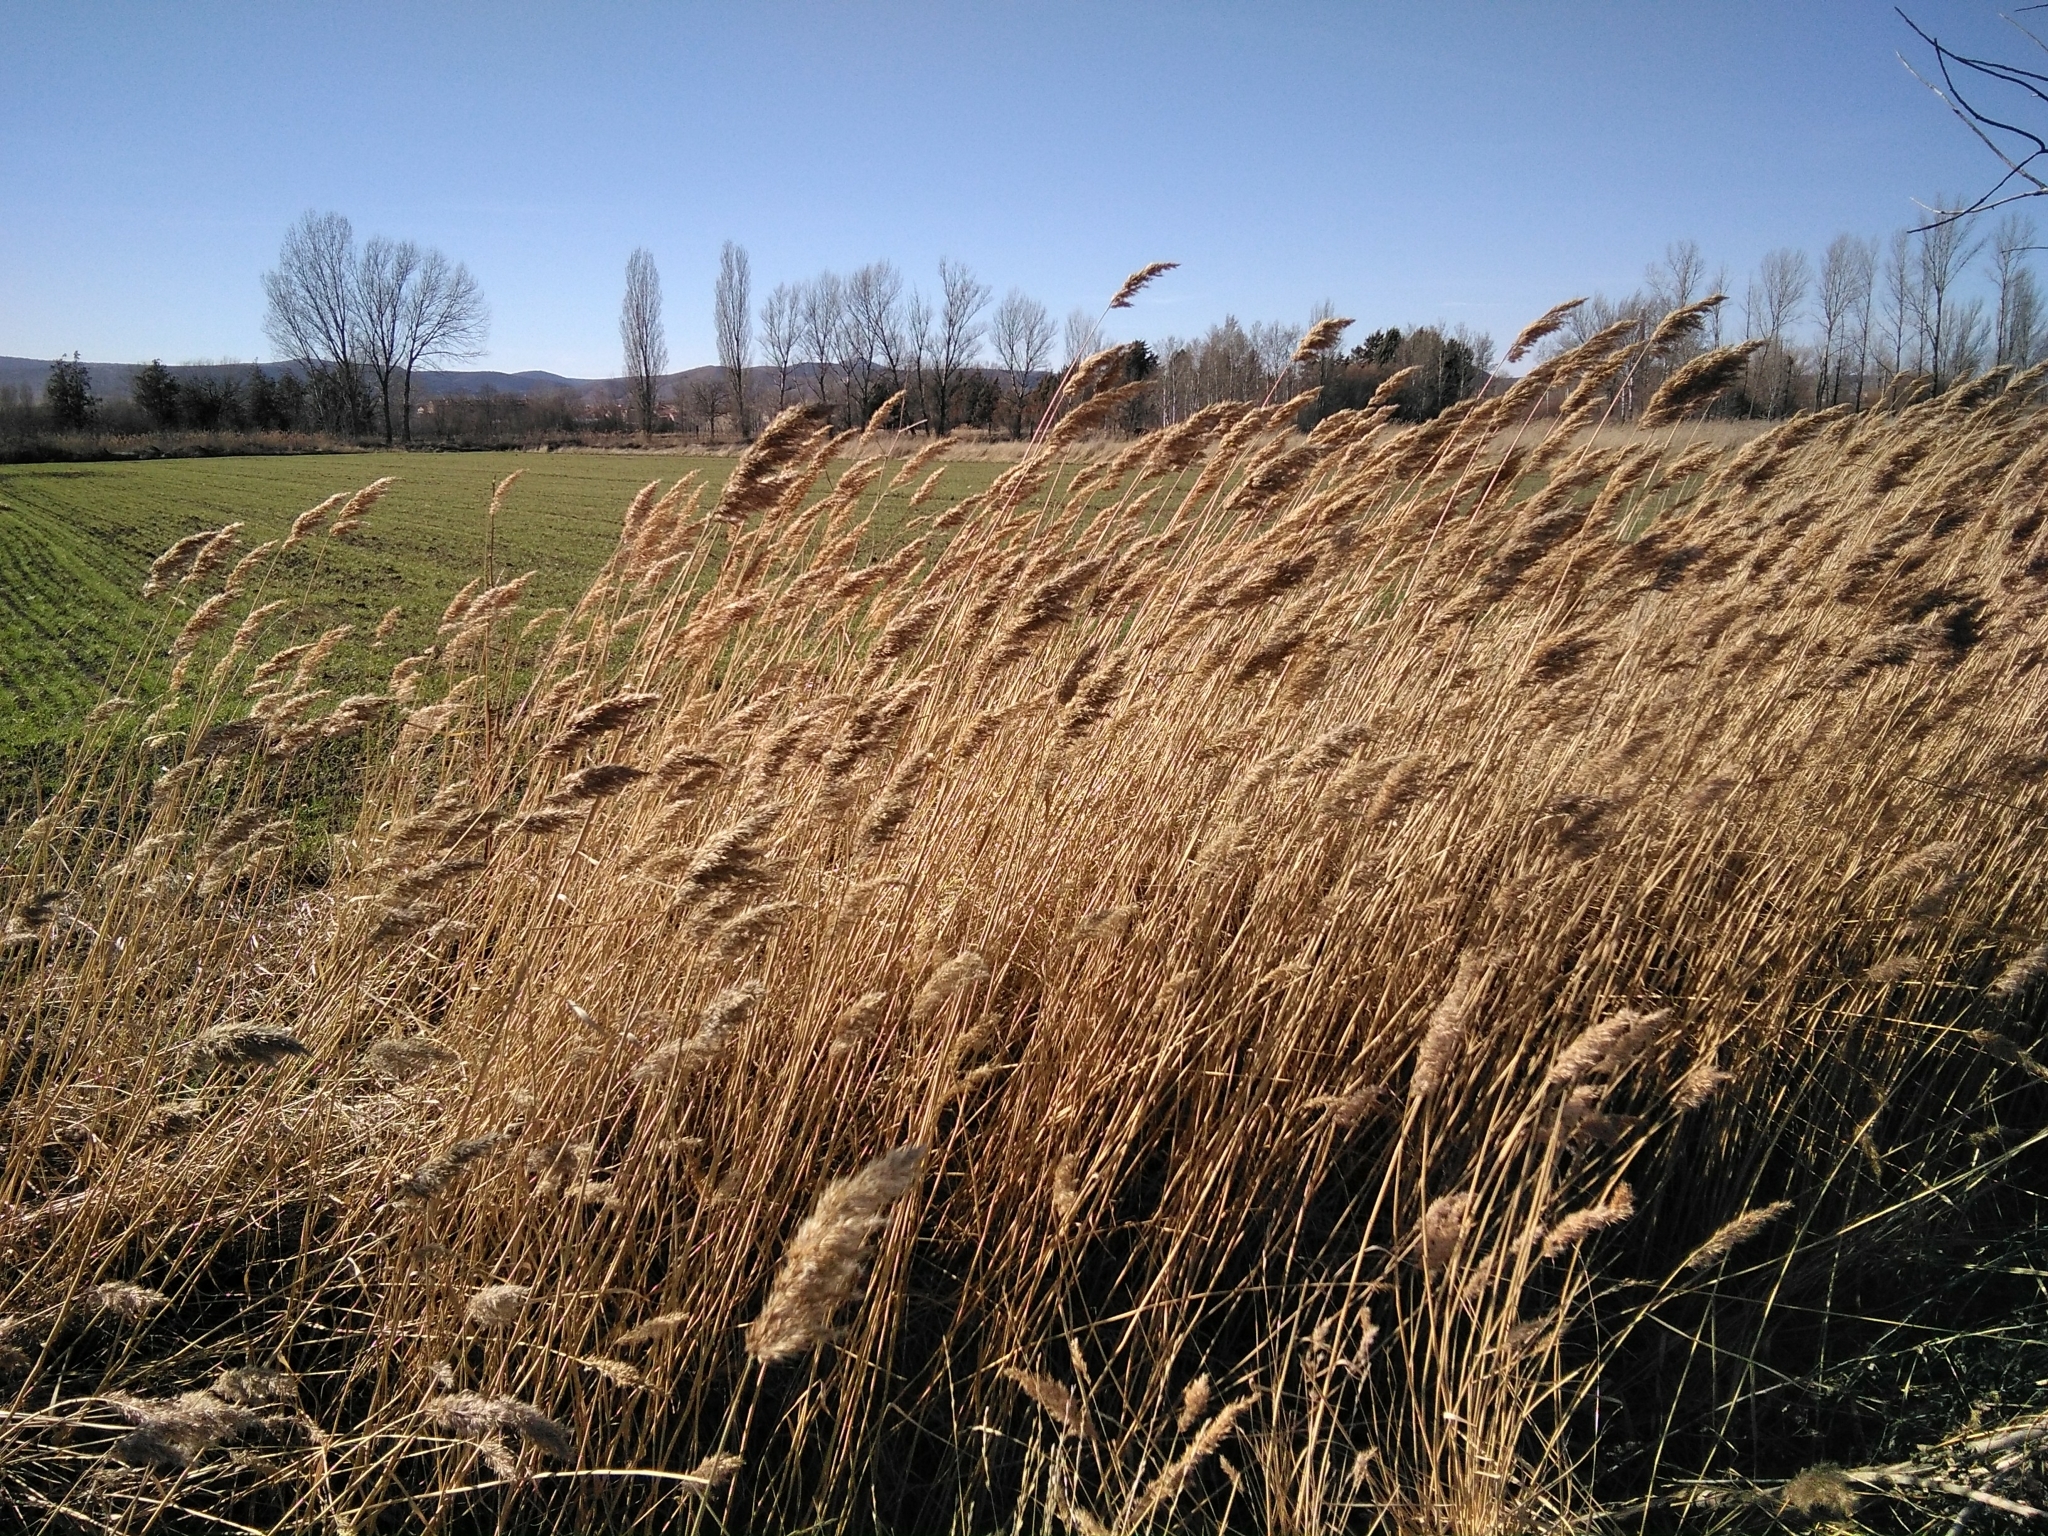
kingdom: Plantae
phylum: Tracheophyta
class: Liliopsida
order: Poales
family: Poaceae
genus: Phragmites
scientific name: Phragmites australis
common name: Common reed
